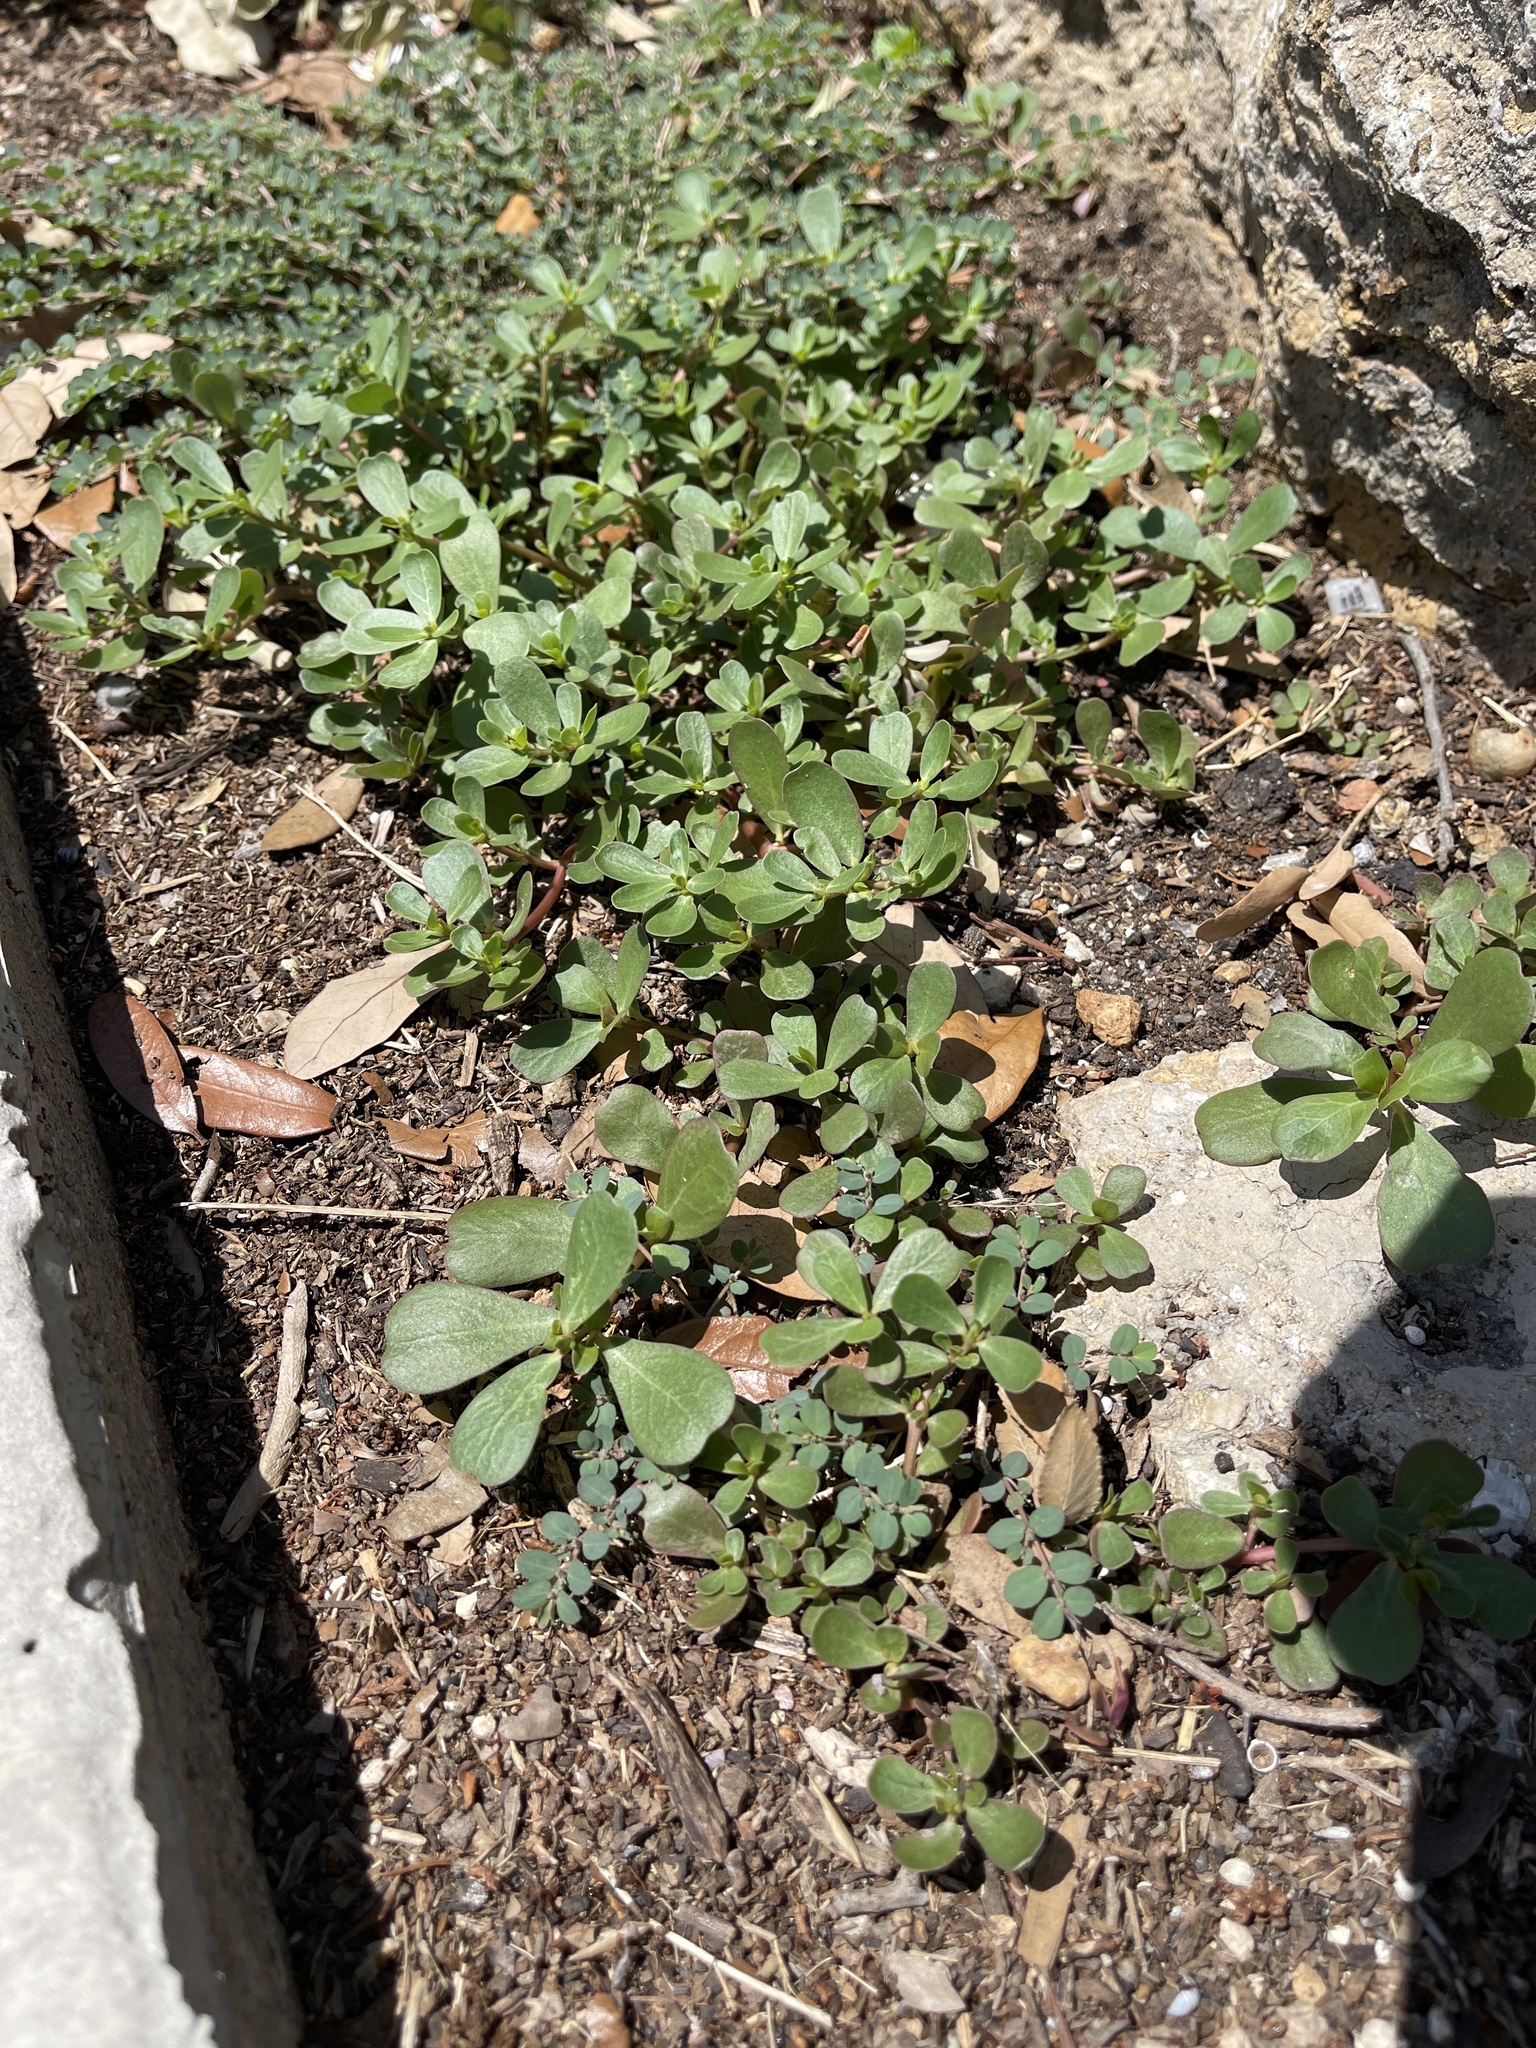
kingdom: Plantae
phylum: Tracheophyta
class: Magnoliopsida
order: Caryophyllales
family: Portulacaceae
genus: Portulaca
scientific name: Portulaca oleracea
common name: Common purslane
